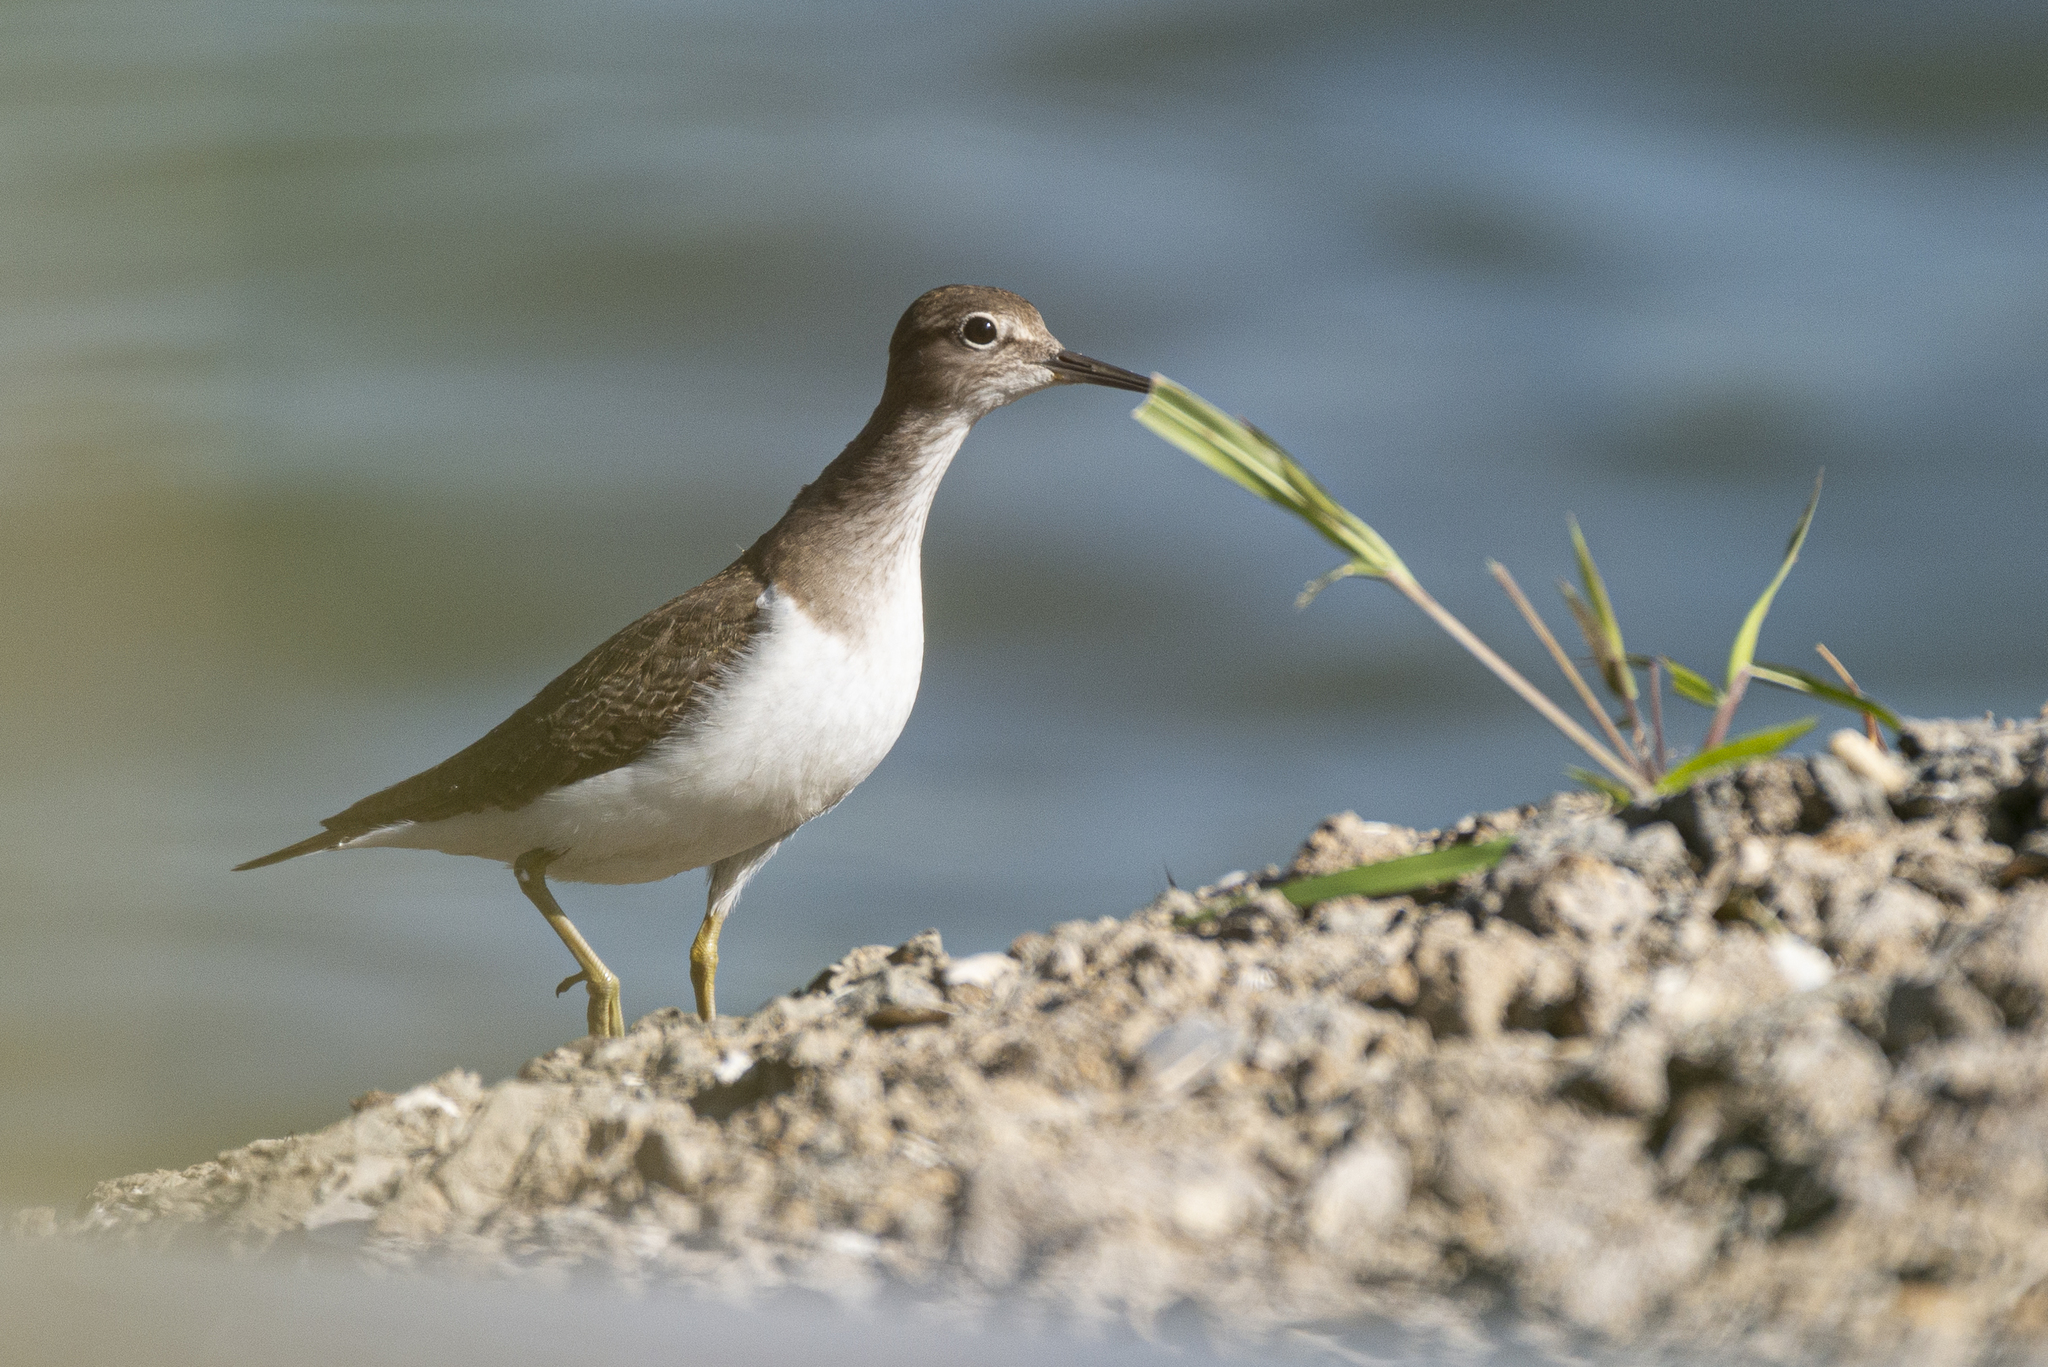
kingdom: Animalia
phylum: Chordata
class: Aves
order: Charadriiformes
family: Scolopacidae
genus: Actitis
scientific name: Actitis hypoleucos
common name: Common sandpiper
